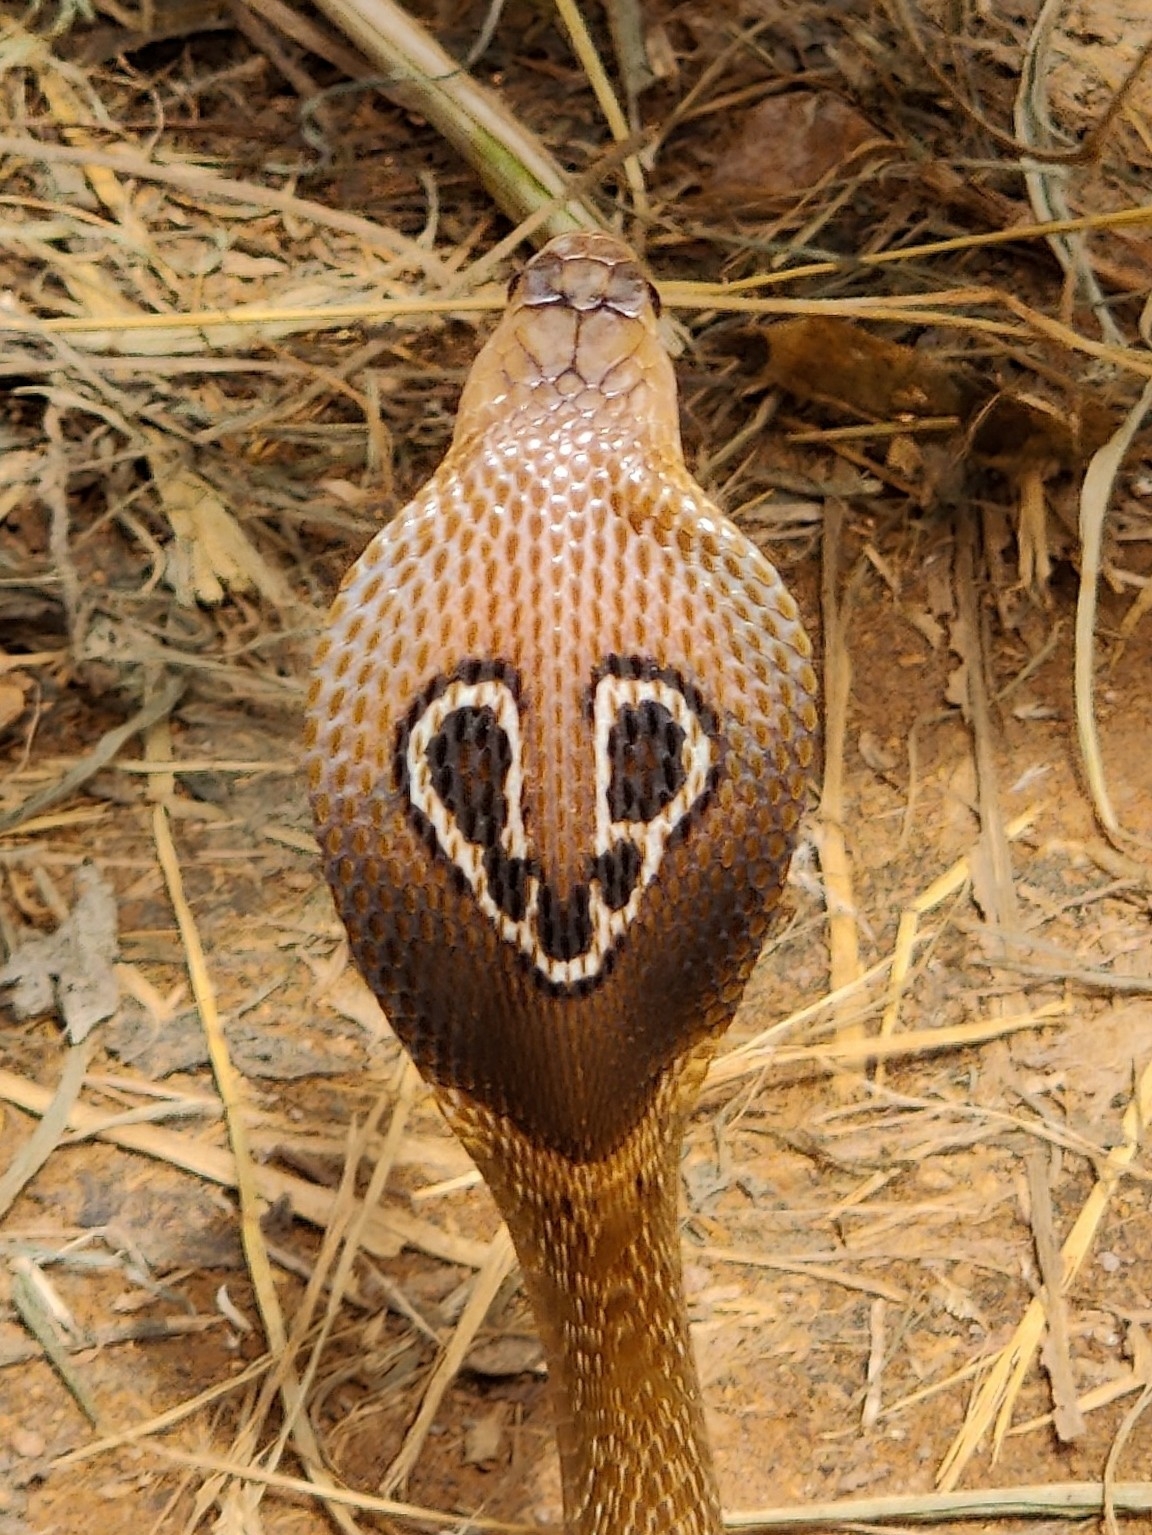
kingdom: Animalia
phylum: Chordata
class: Squamata
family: Elapidae
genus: Naja
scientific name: Naja naja
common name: Indian cobra
